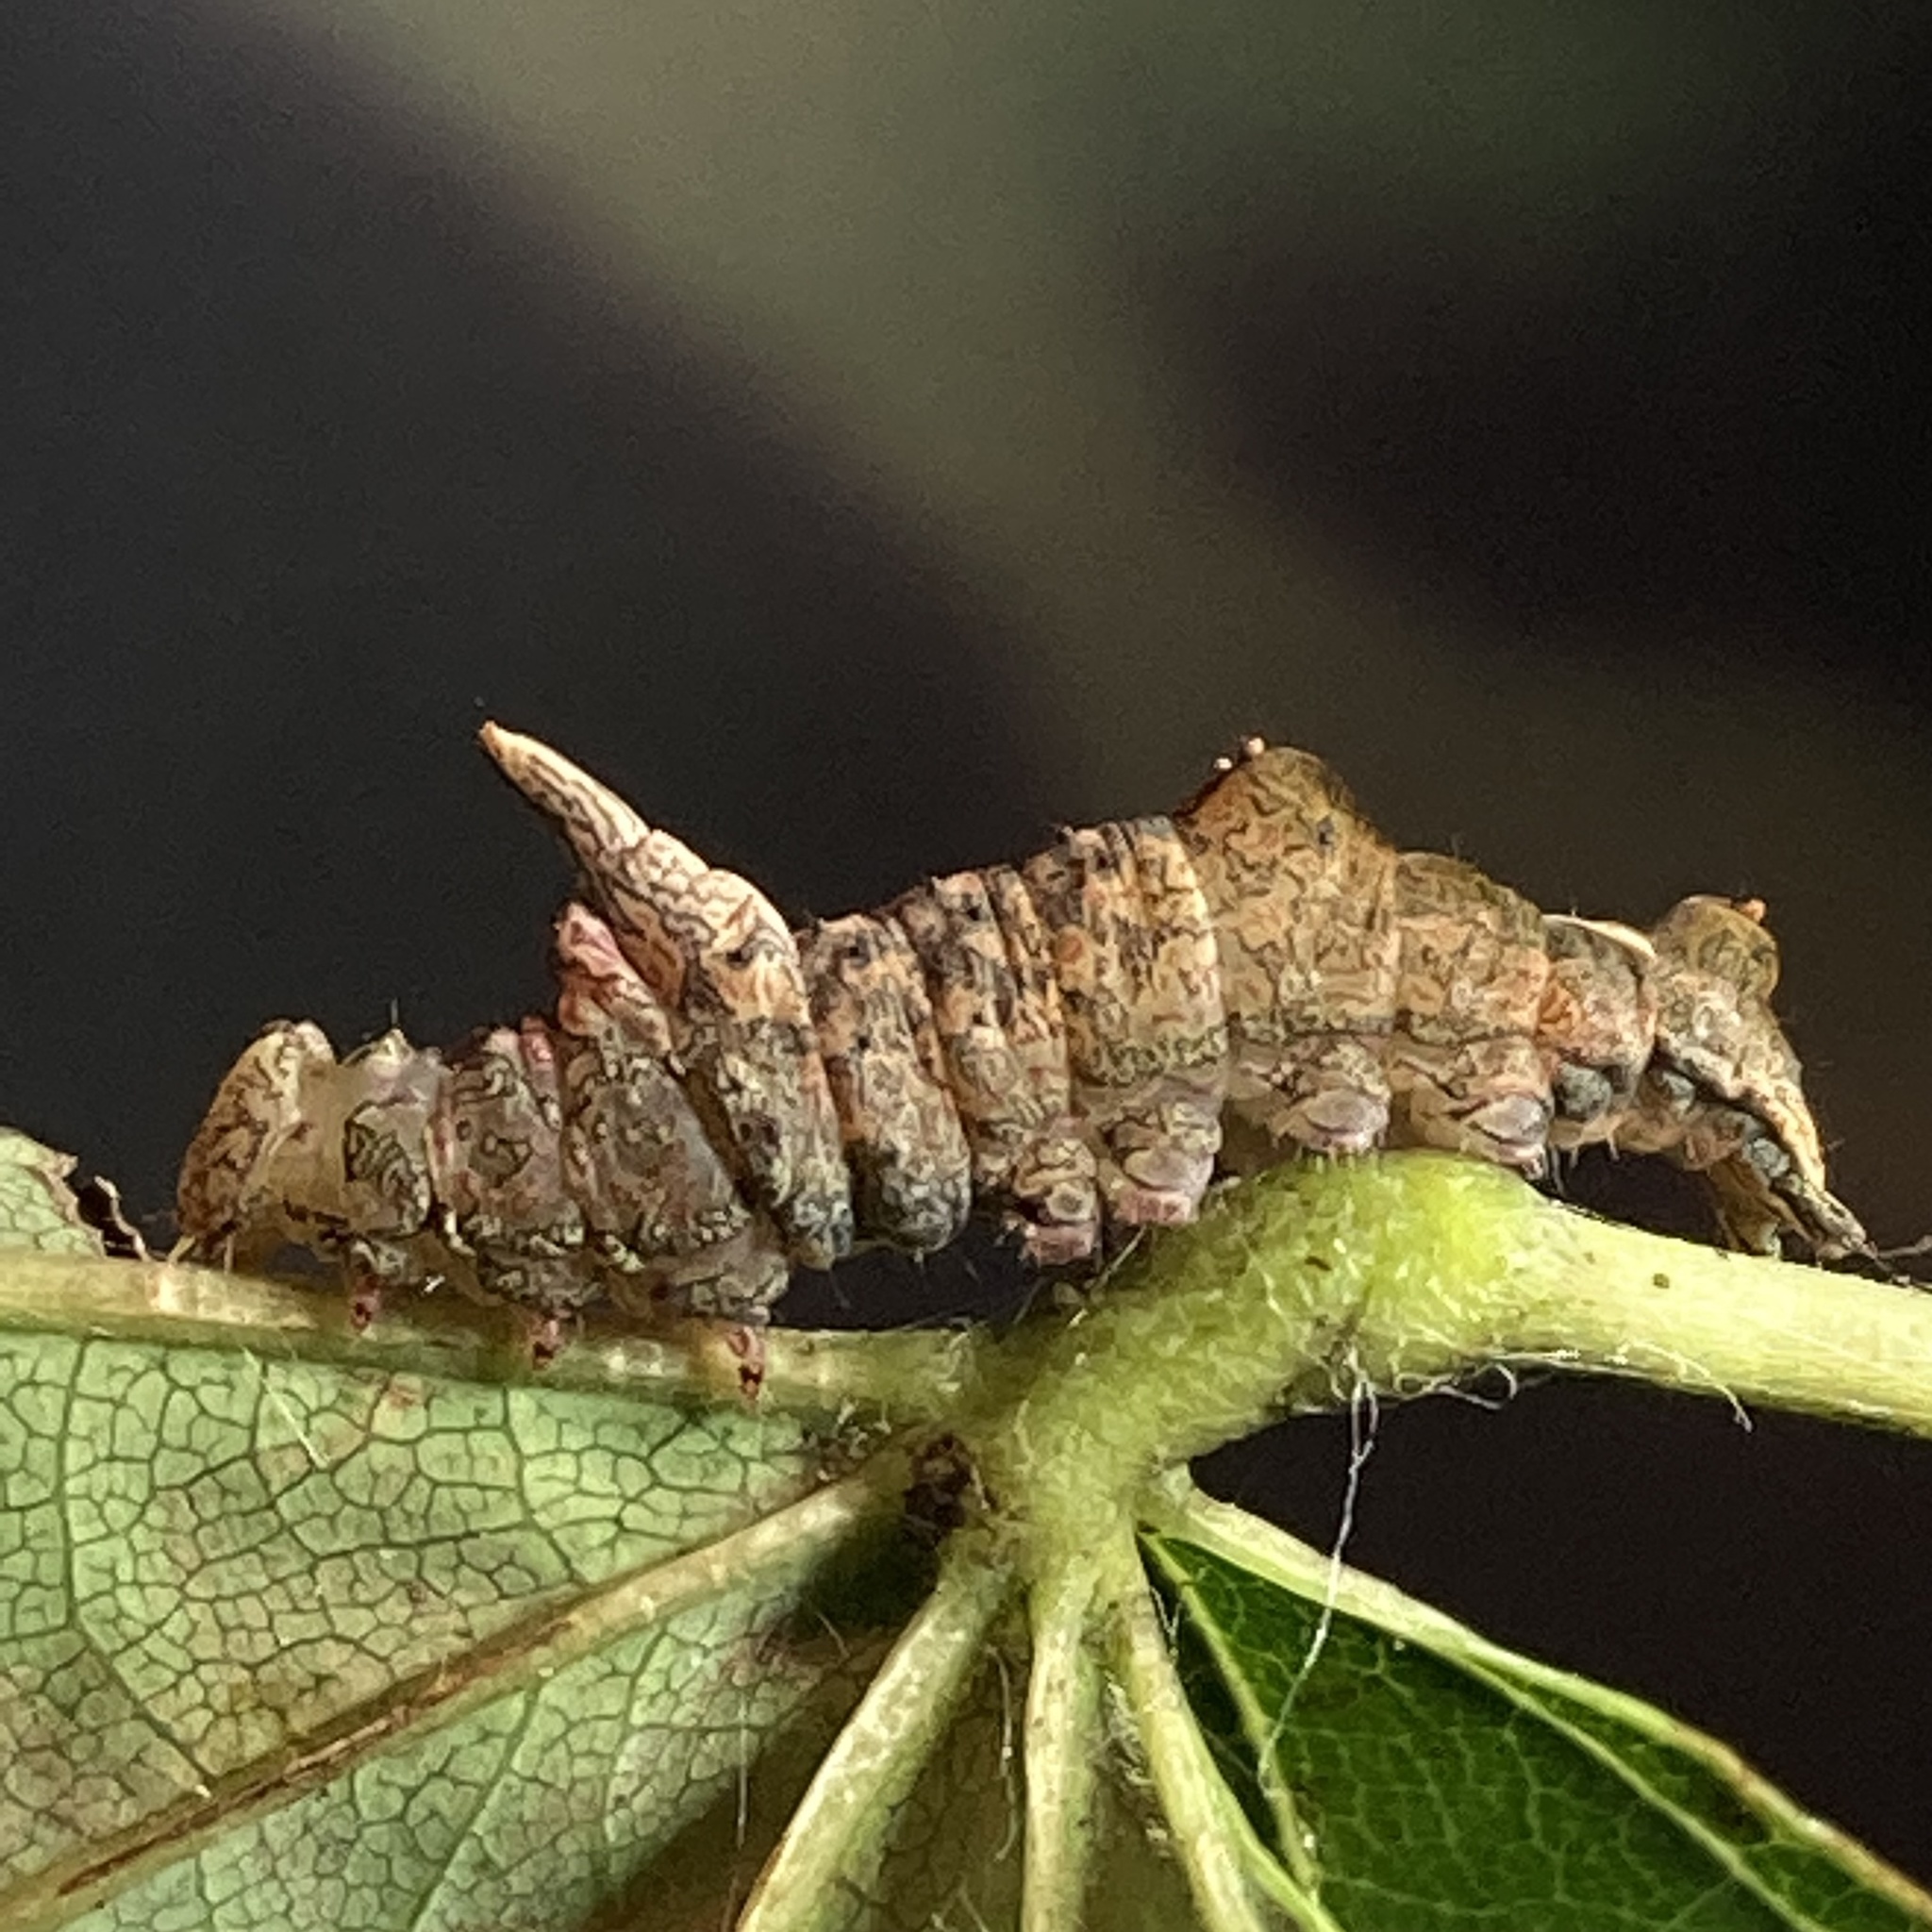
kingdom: Animalia
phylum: Arthropoda
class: Insecta
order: Lepidoptera
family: Notodontidae
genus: Schizura
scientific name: Schizura
